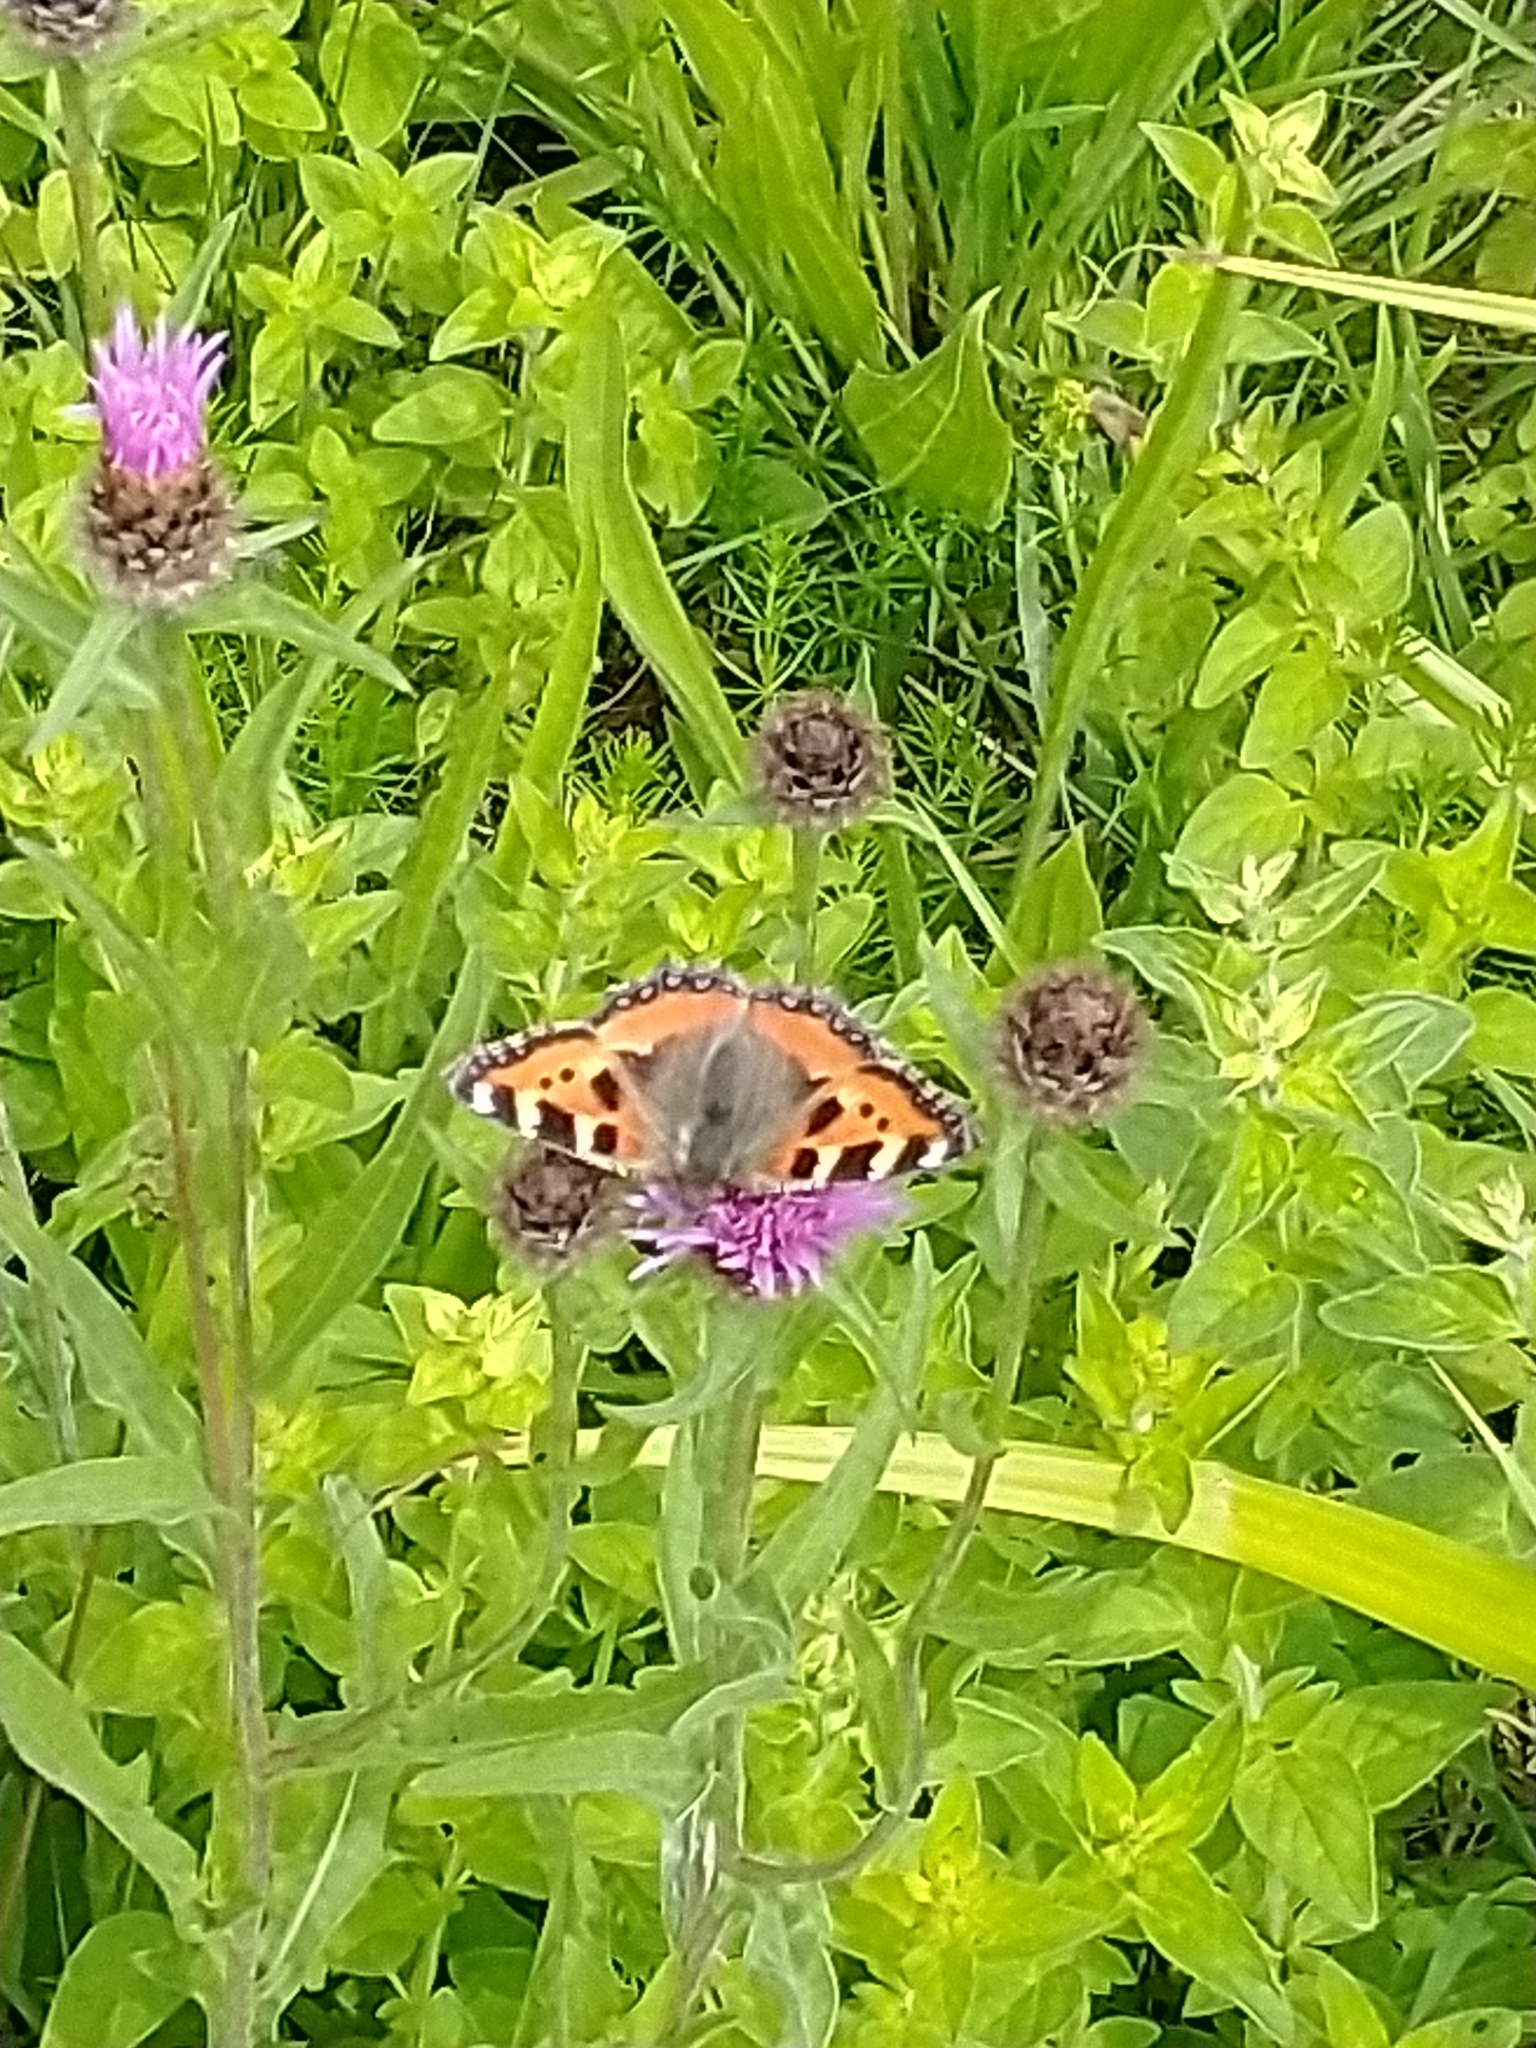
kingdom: Animalia
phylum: Arthropoda
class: Insecta
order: Lepidoptera
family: Nymphalidae
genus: Aglais
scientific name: Aglais urticae
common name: Small tortoiseshell
